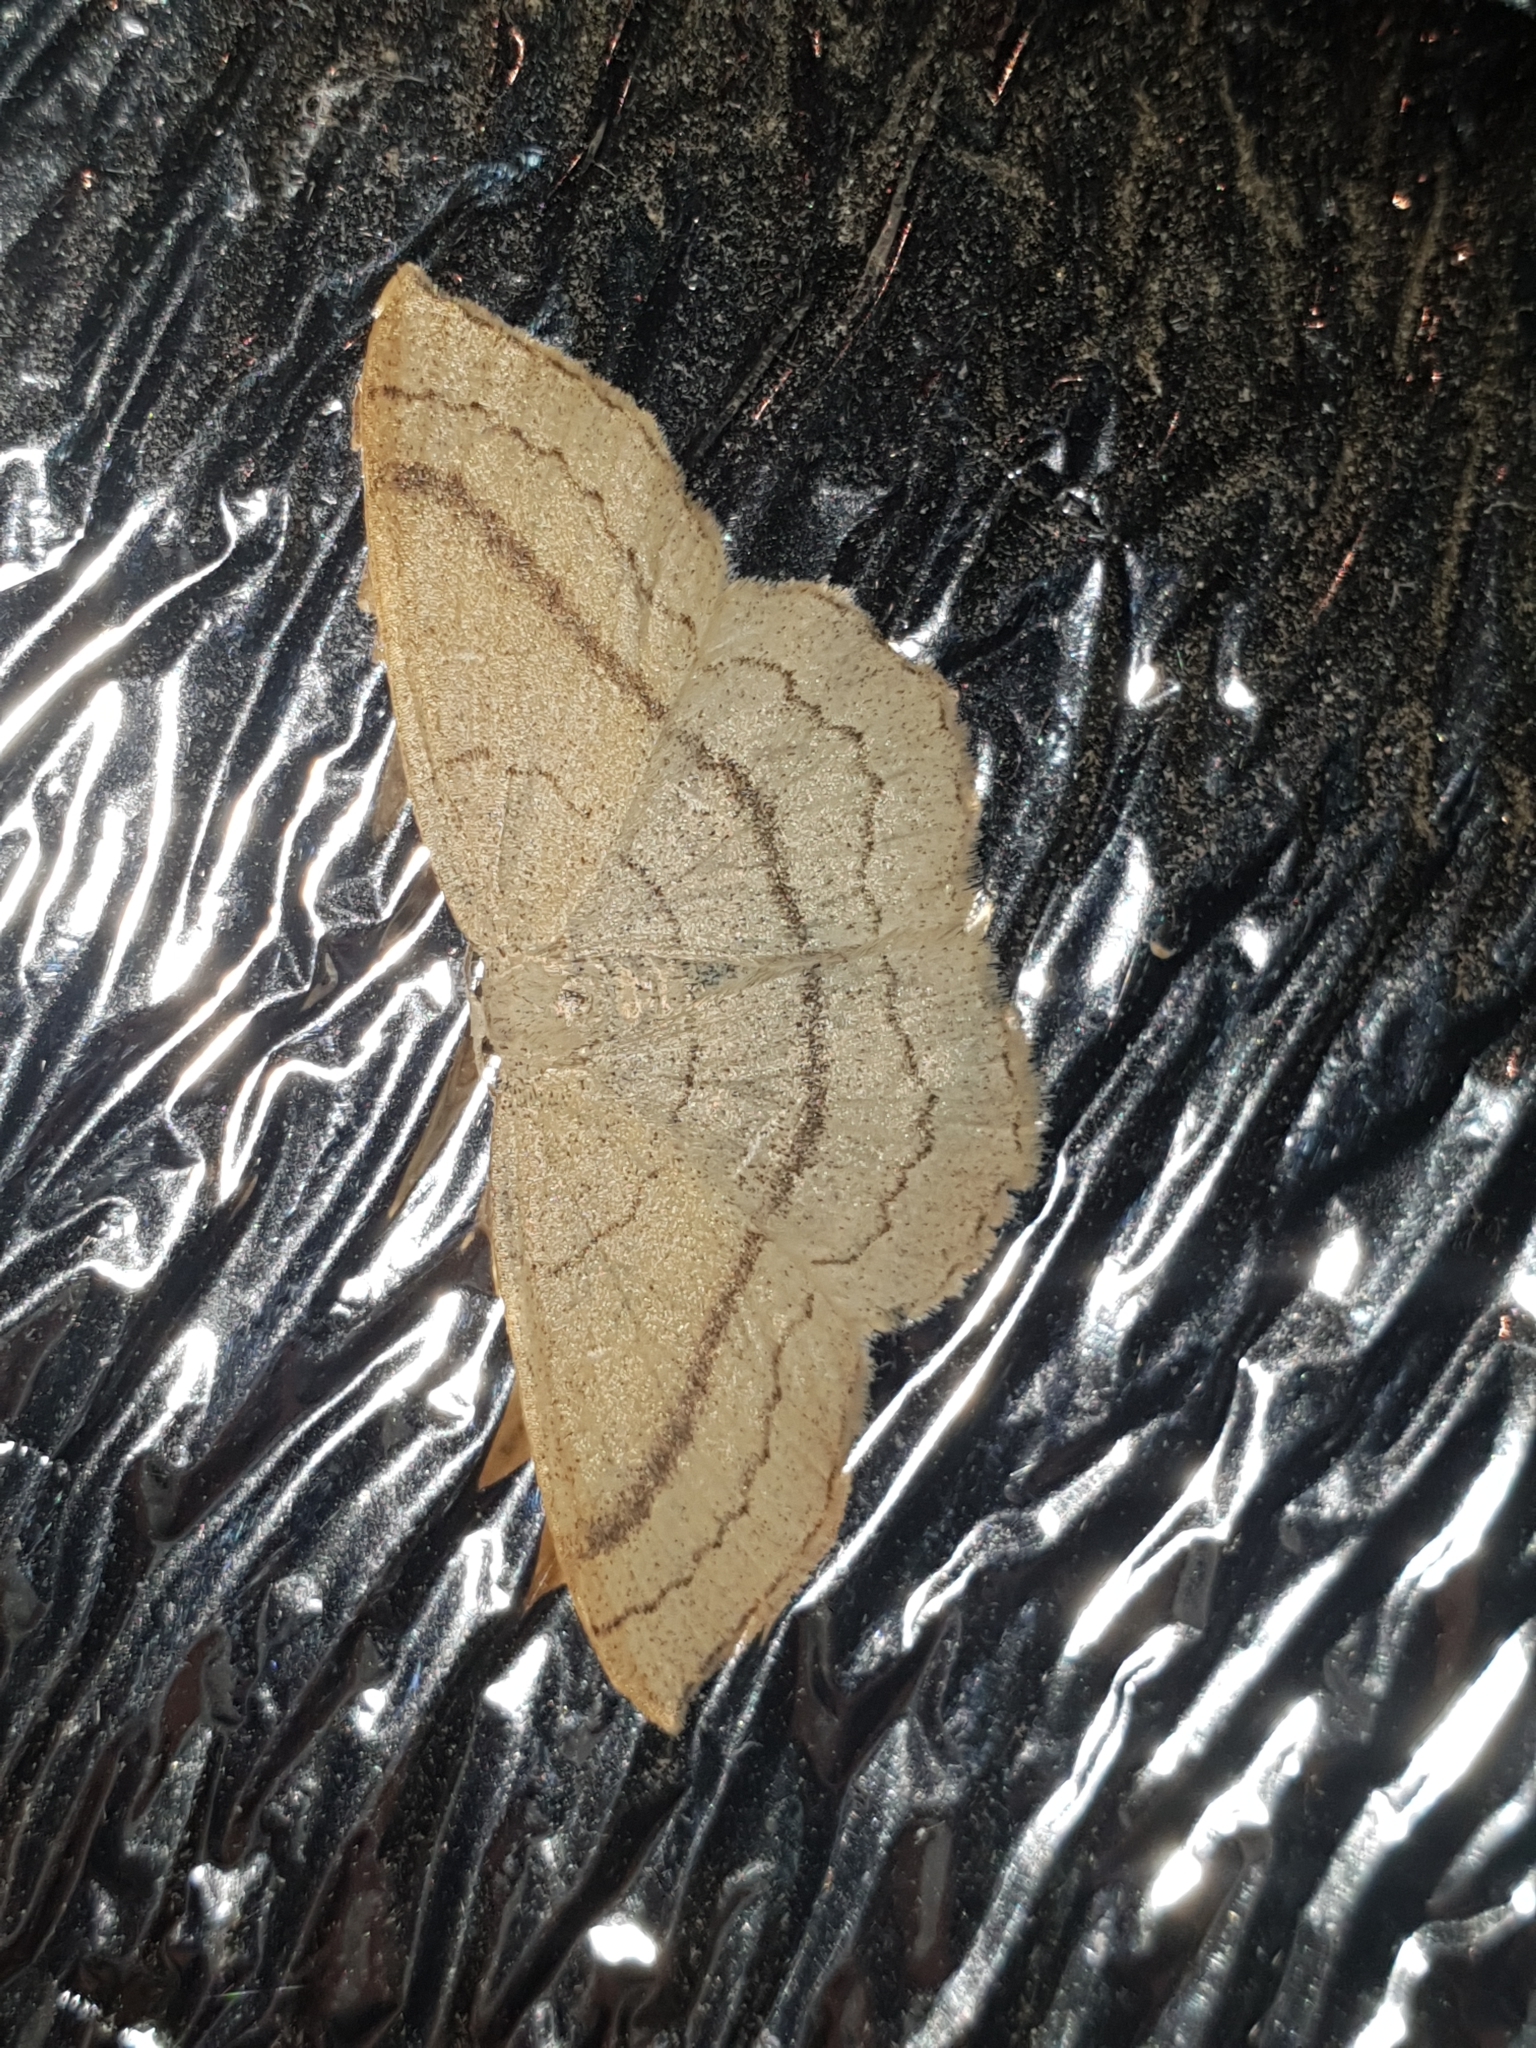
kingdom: Animalia
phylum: Arthropoda
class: Insecta
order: Lepidoptera
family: Geometridae
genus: Cyclophora
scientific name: Cyclophora linearia
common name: Clay triple-lines
